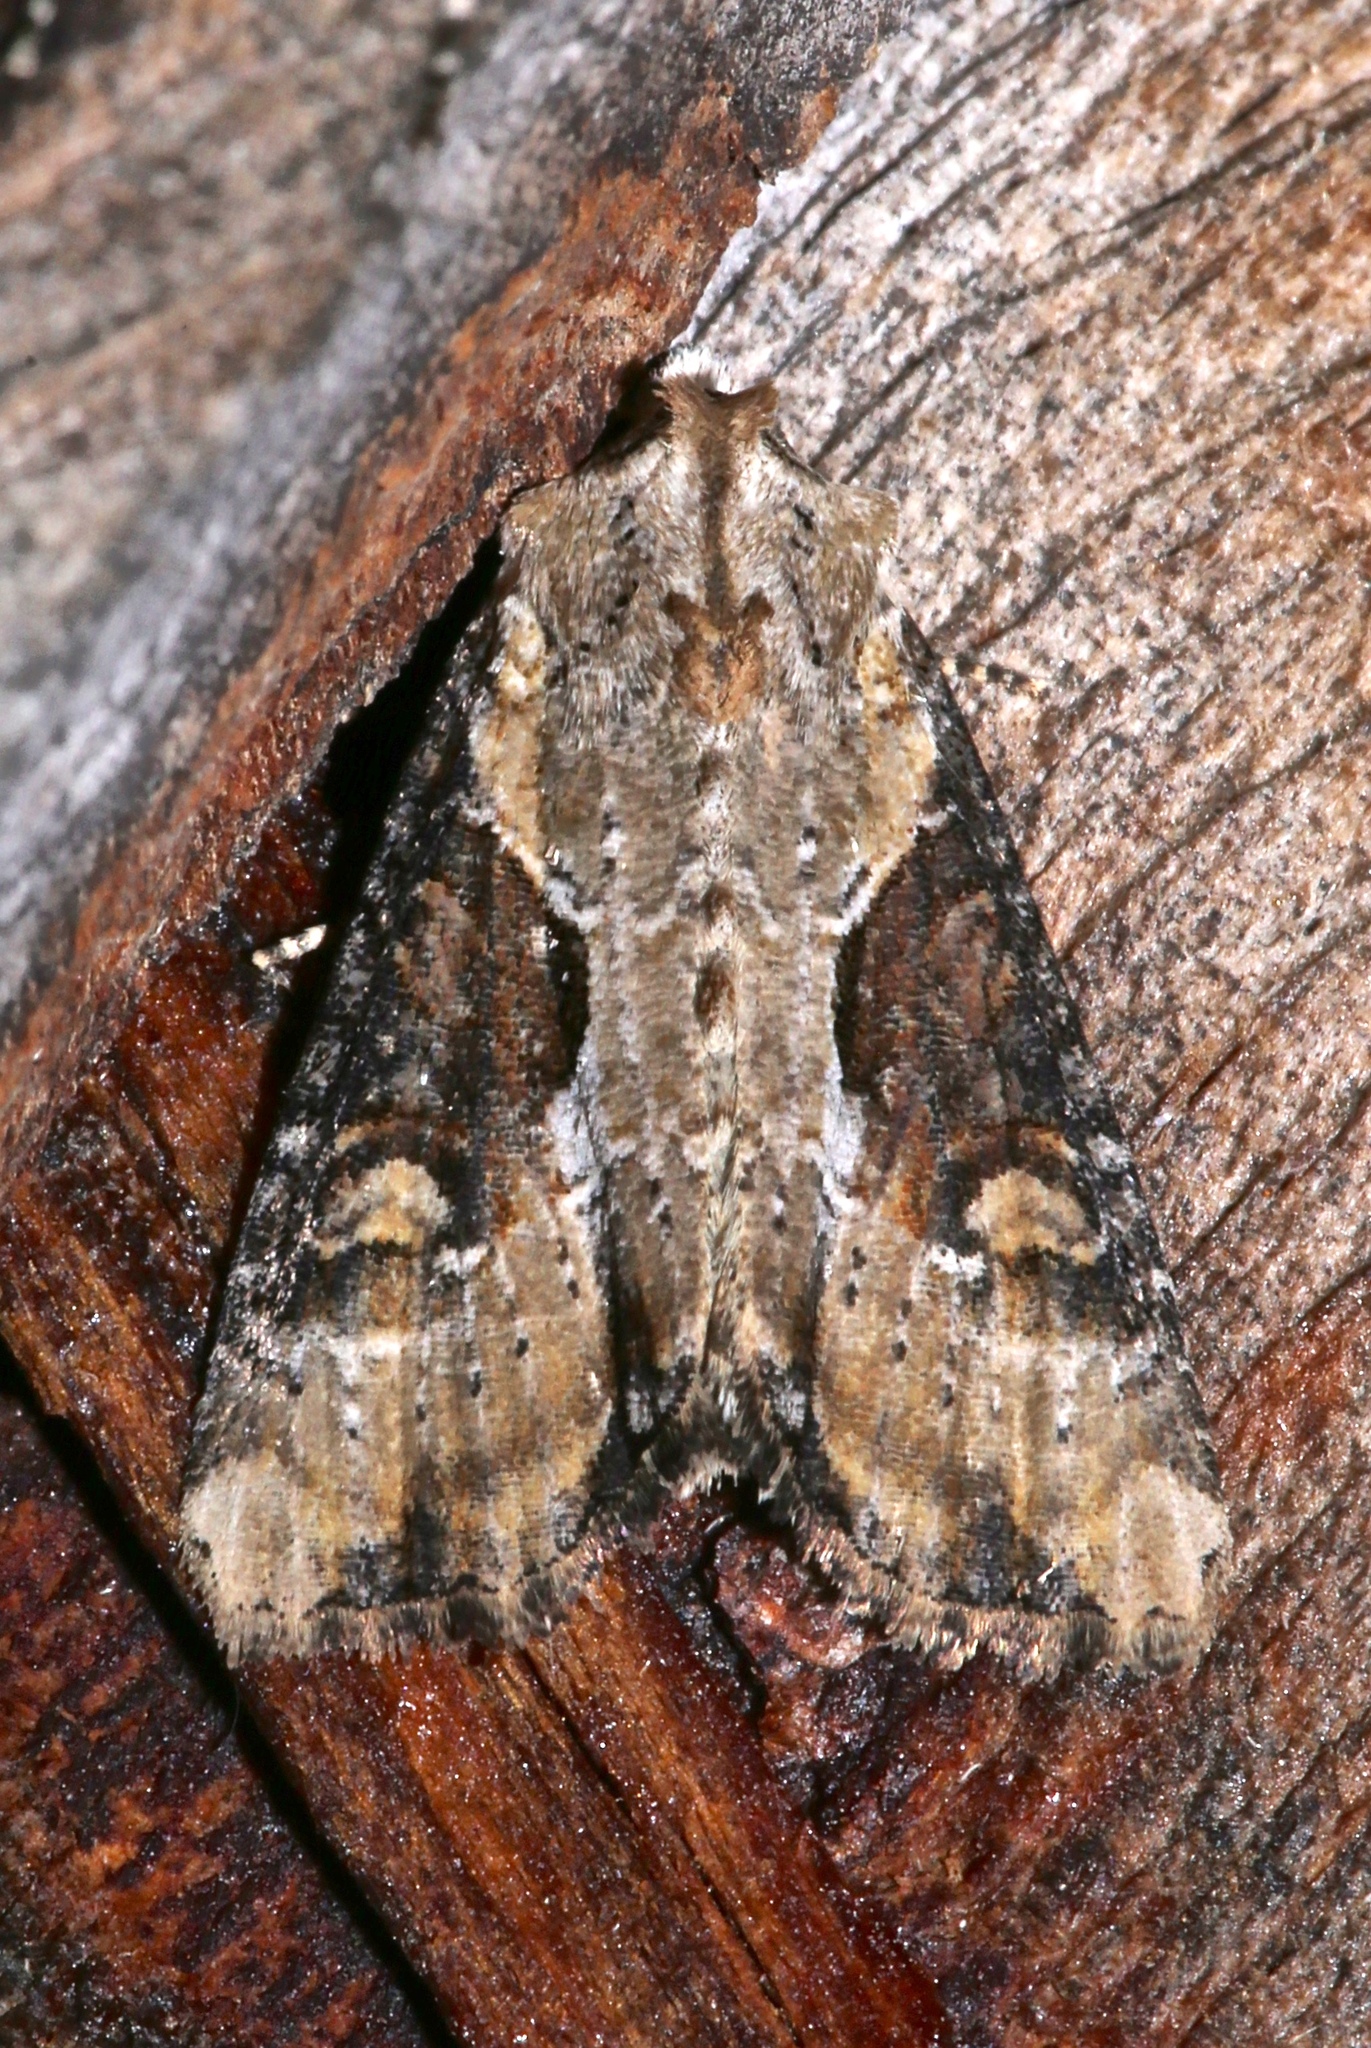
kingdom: Animalia
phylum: Arthropoda
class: Insecta
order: Lepidoptera
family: Noctuidae
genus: Lateroligia
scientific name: Lateroligia ophiogramma
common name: Double lobed
